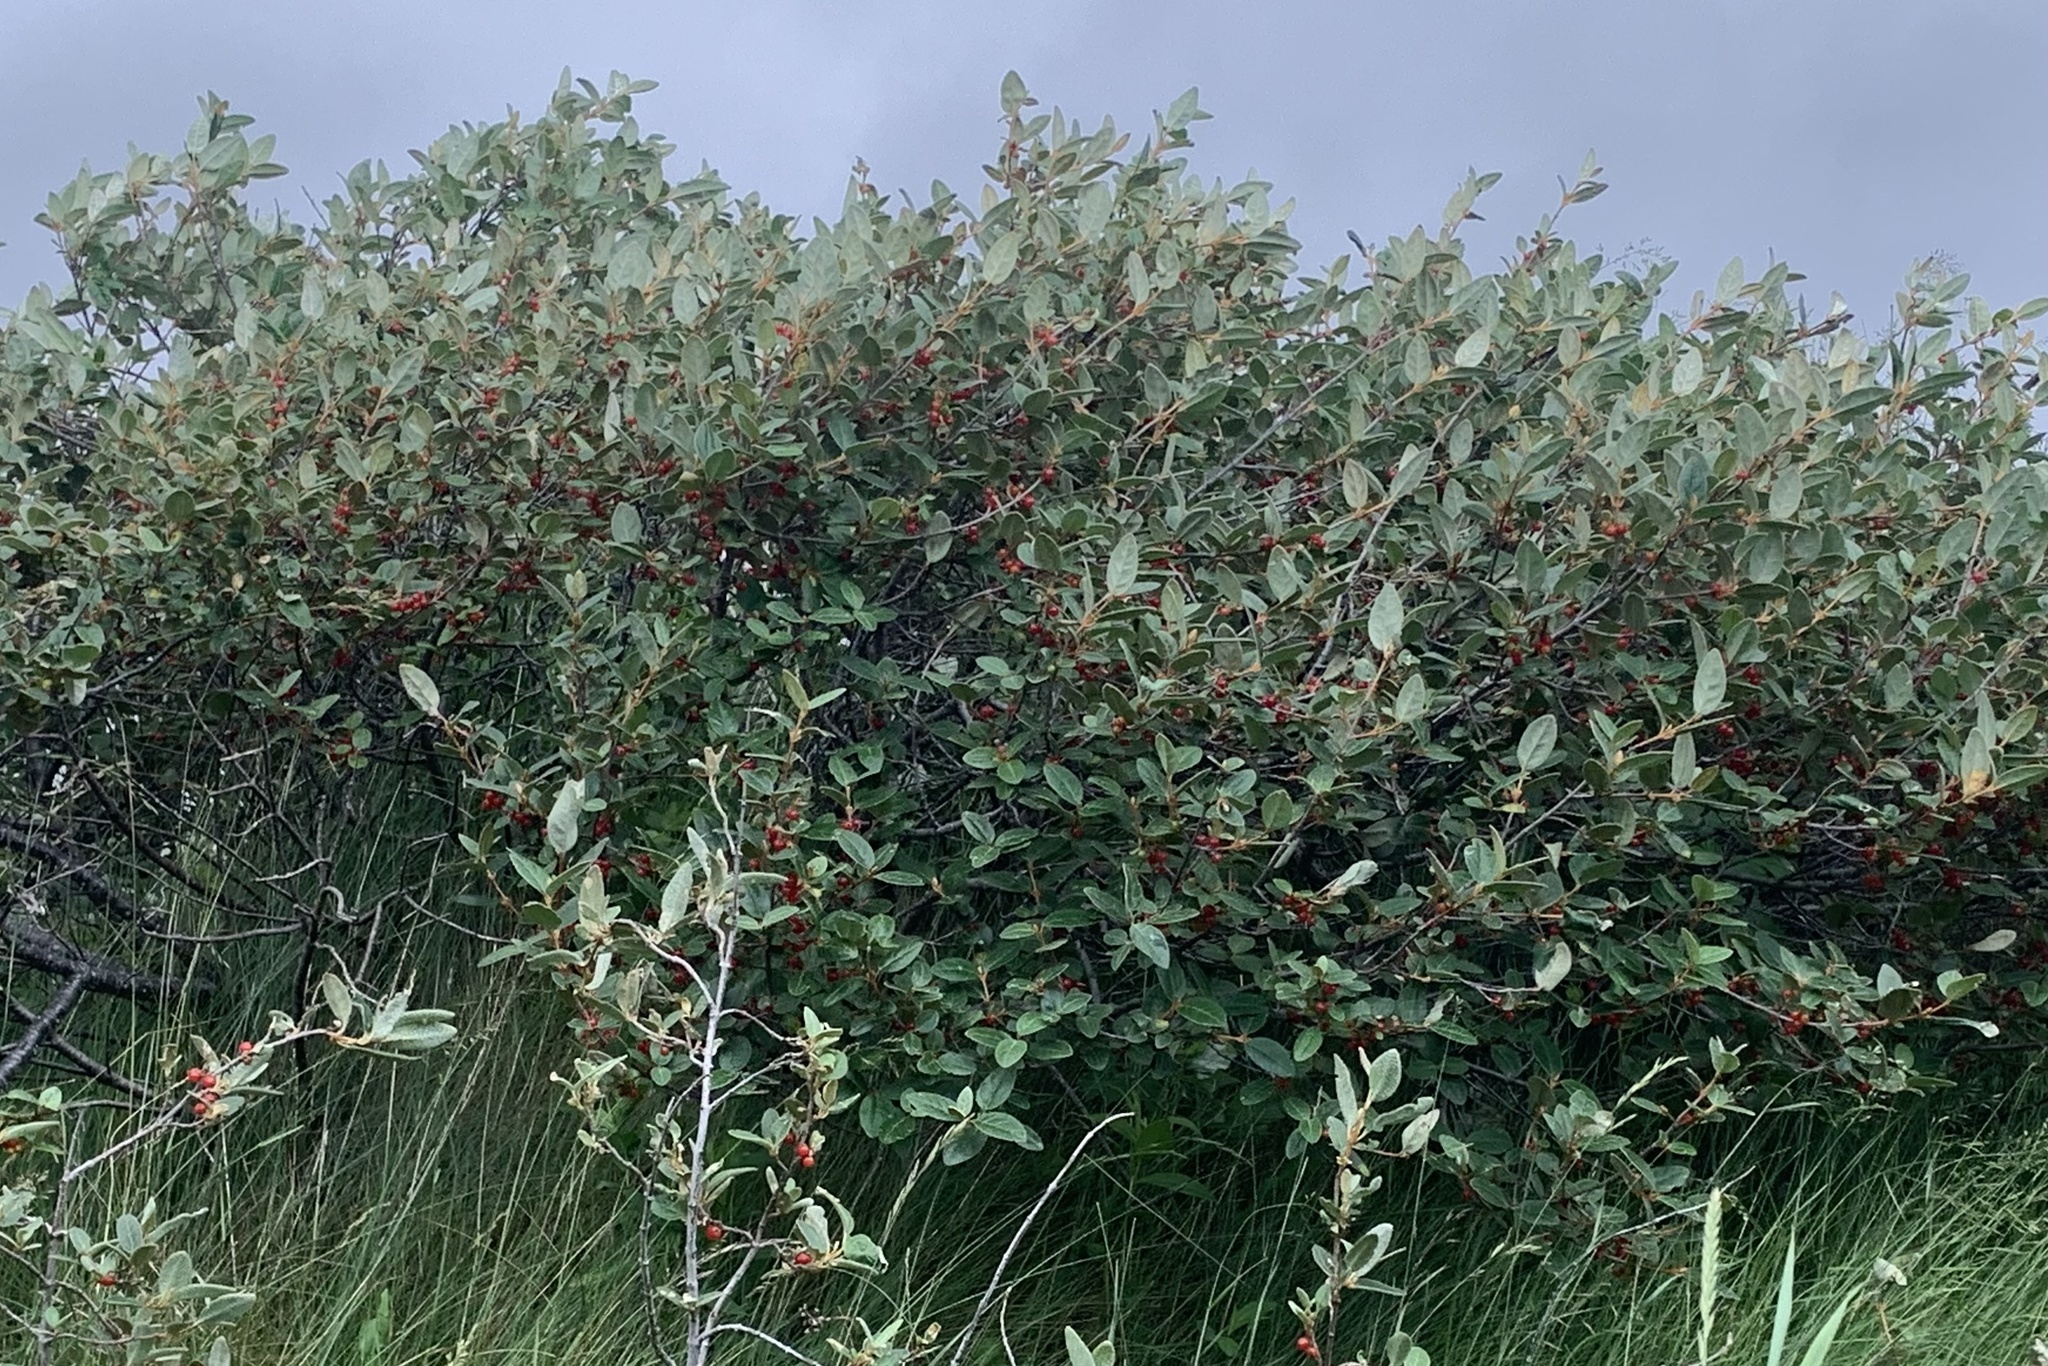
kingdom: Plantae
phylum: Tracheophyta
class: Magnoliopsida
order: Rosales
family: Elaeagnaceae
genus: Shepherdia
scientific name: Shepherdia canadensis
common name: Soapberry
